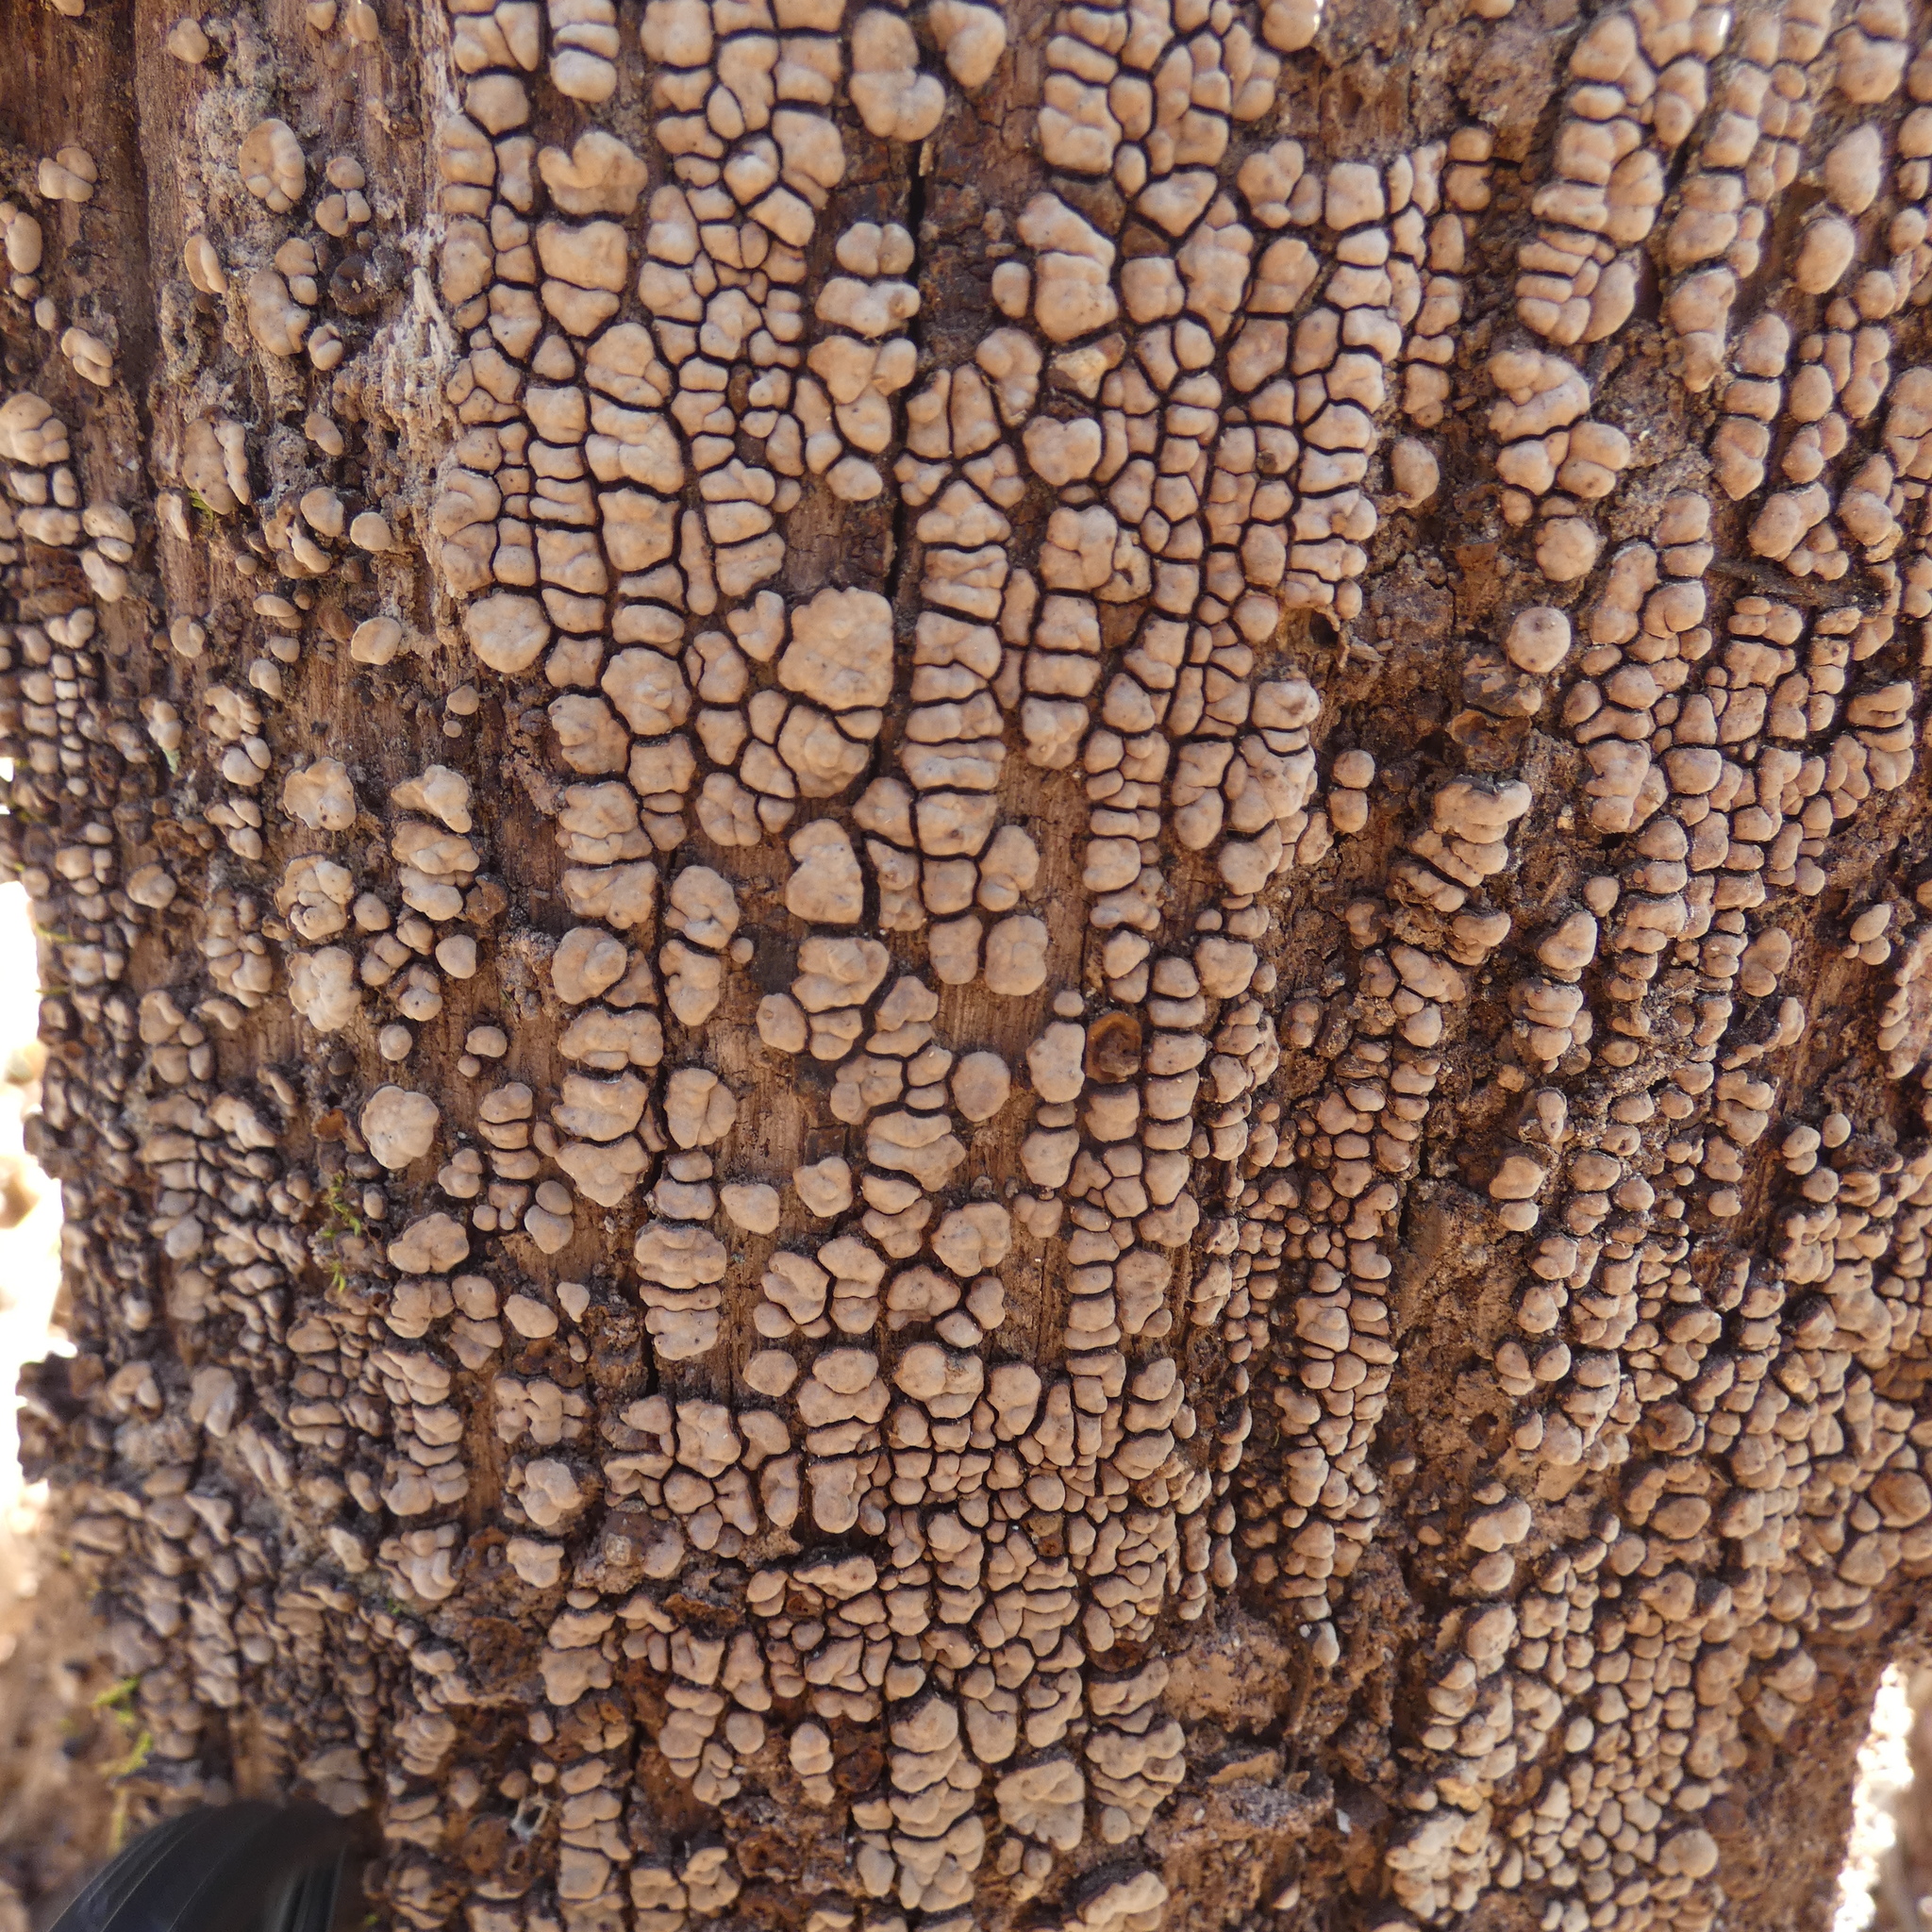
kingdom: Fungi
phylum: Basidiomycota
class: Agaricomycetes
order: Russulales
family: Stereaceae
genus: Xylobolus
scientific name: Xylobolus frustulatus
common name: Ceramic parchment
